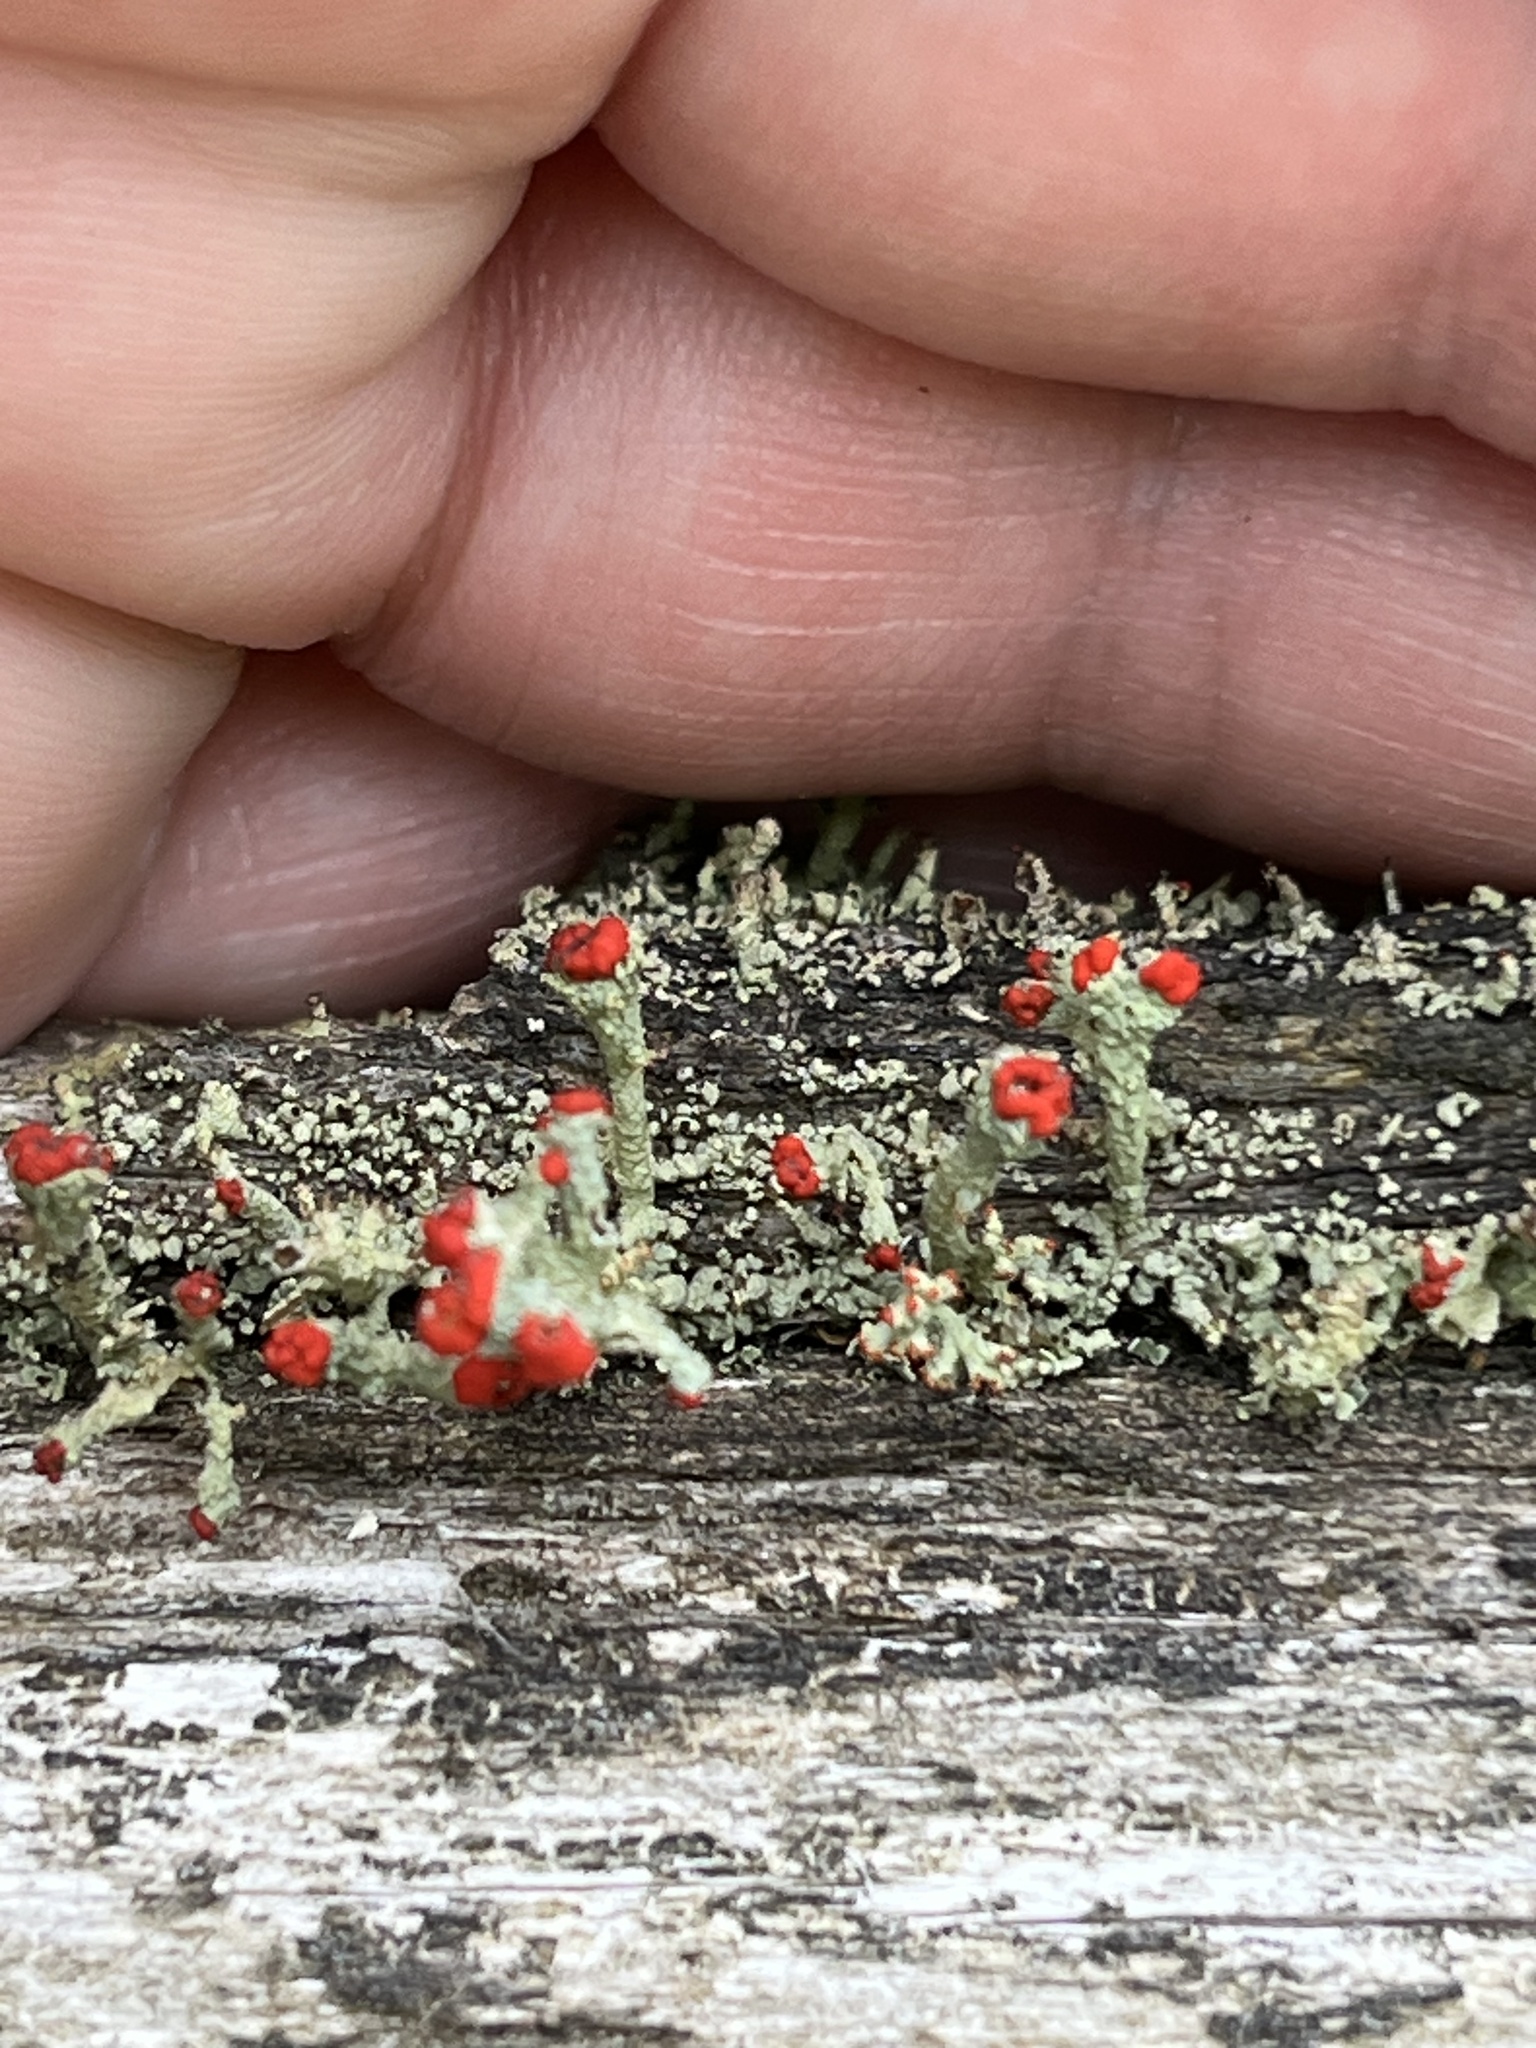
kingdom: Fungi
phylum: Ascomycota
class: Lecanoromycetes
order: Lecanorales
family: Cladoniaceae
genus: Cladonia
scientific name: Cladonia cristatella
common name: British soldier lichen
